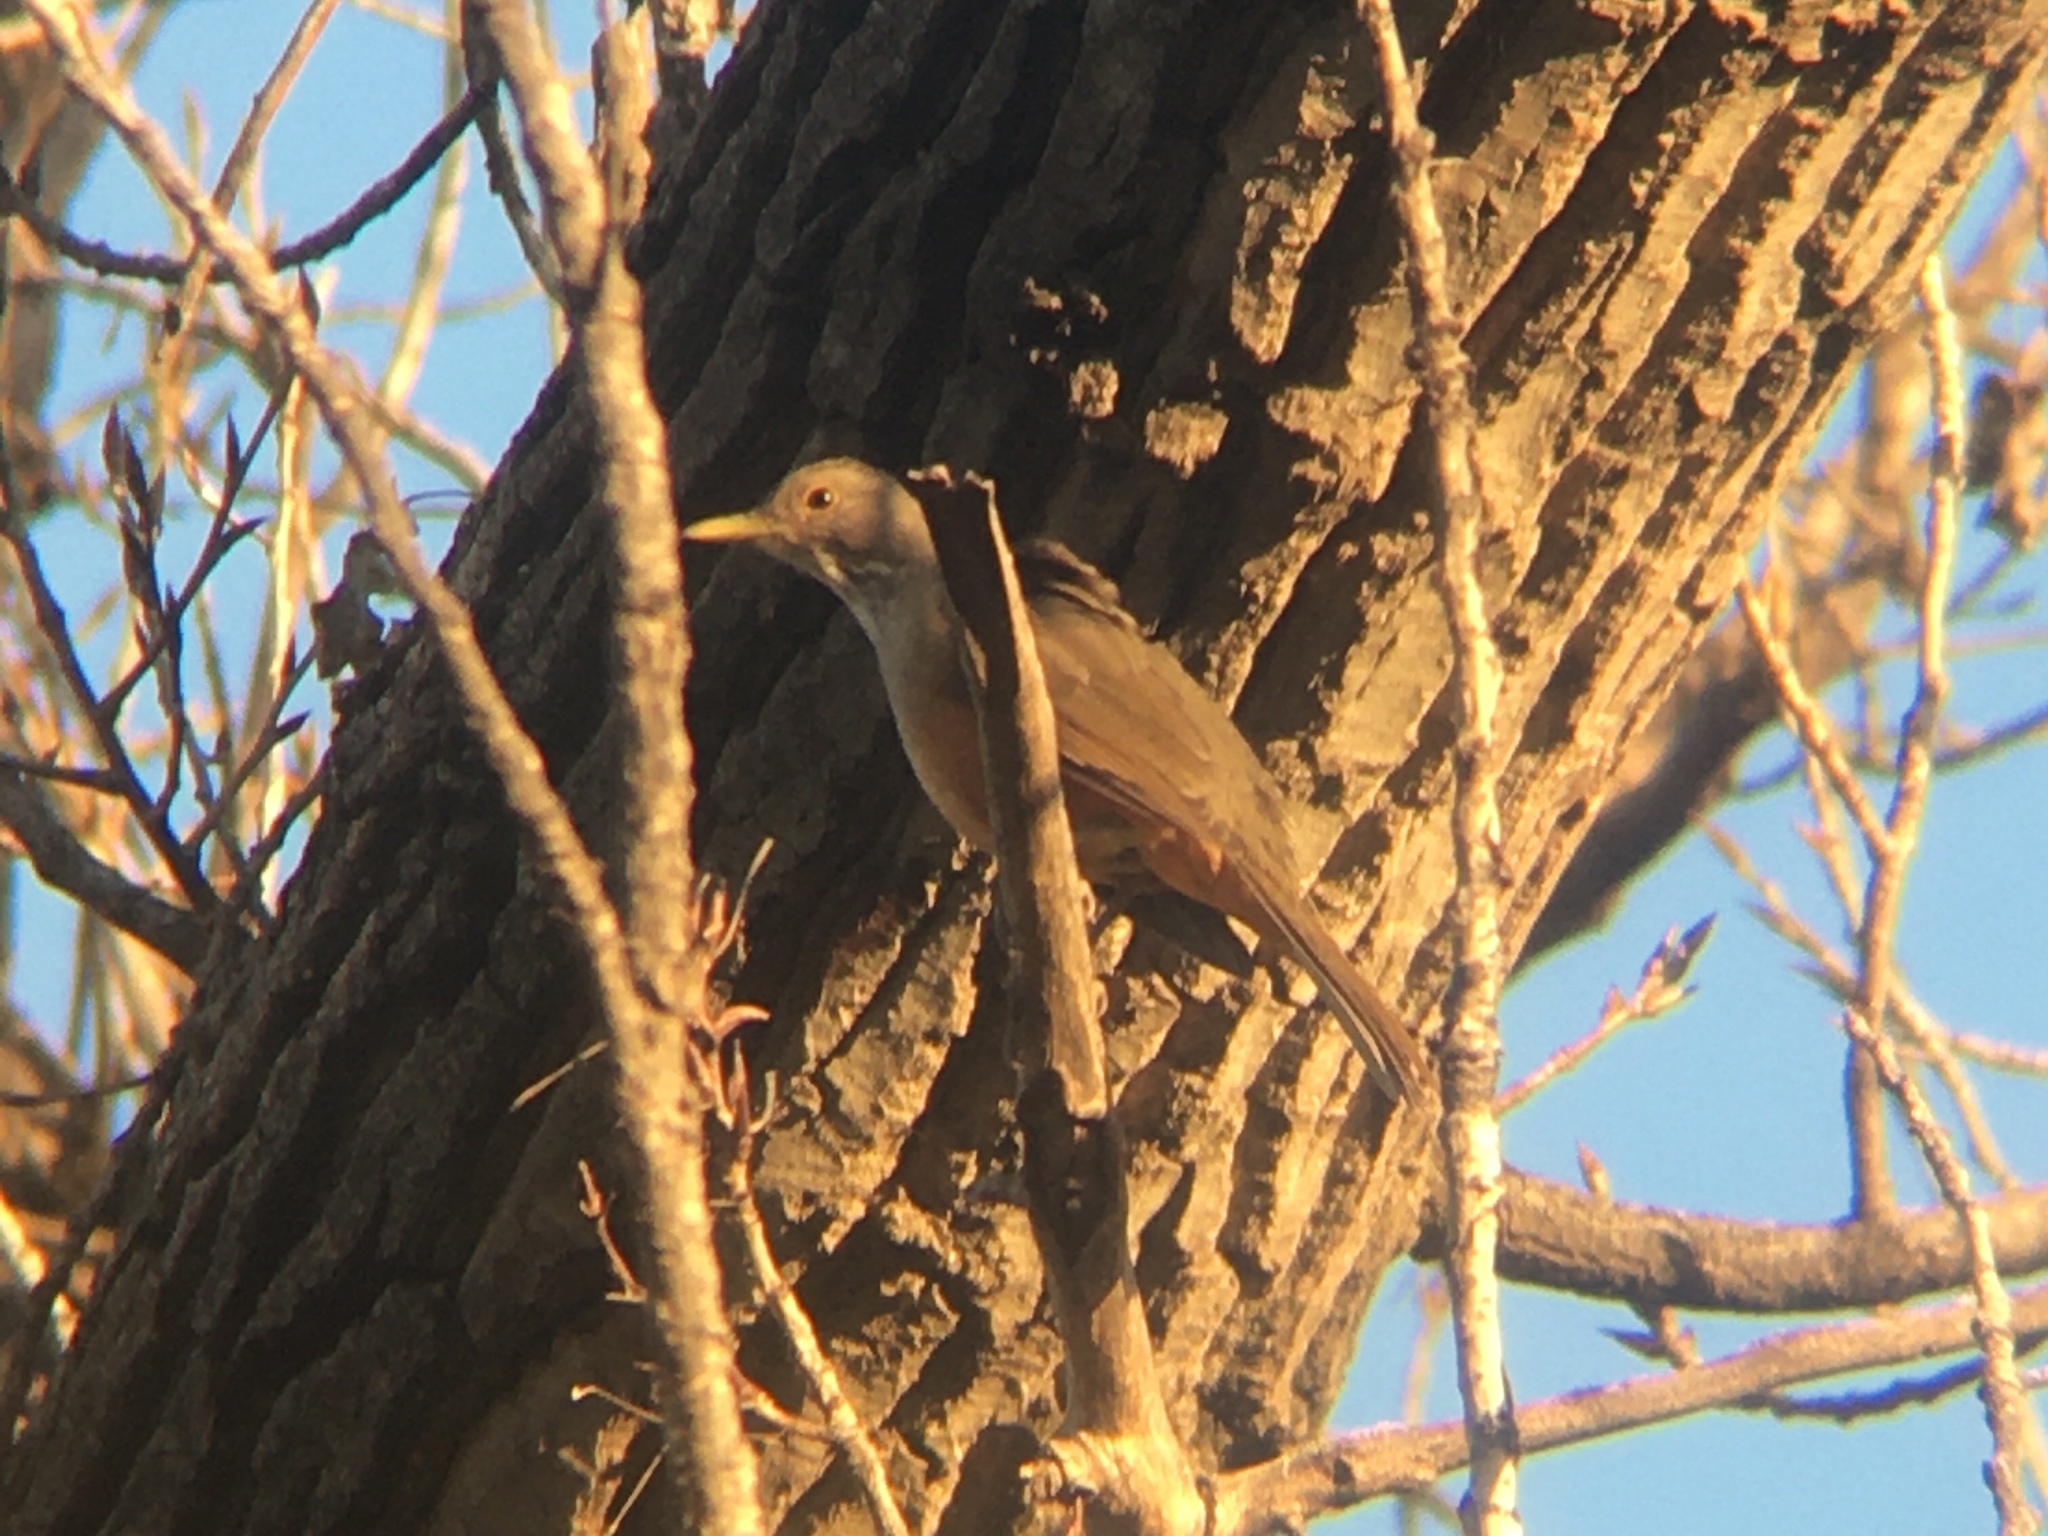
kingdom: Animalia
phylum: Chordata
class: Aves
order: Passeriformes
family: Turdidae
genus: Turdus
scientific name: Turdus rufiventris
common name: Rufous-bellied thrush
